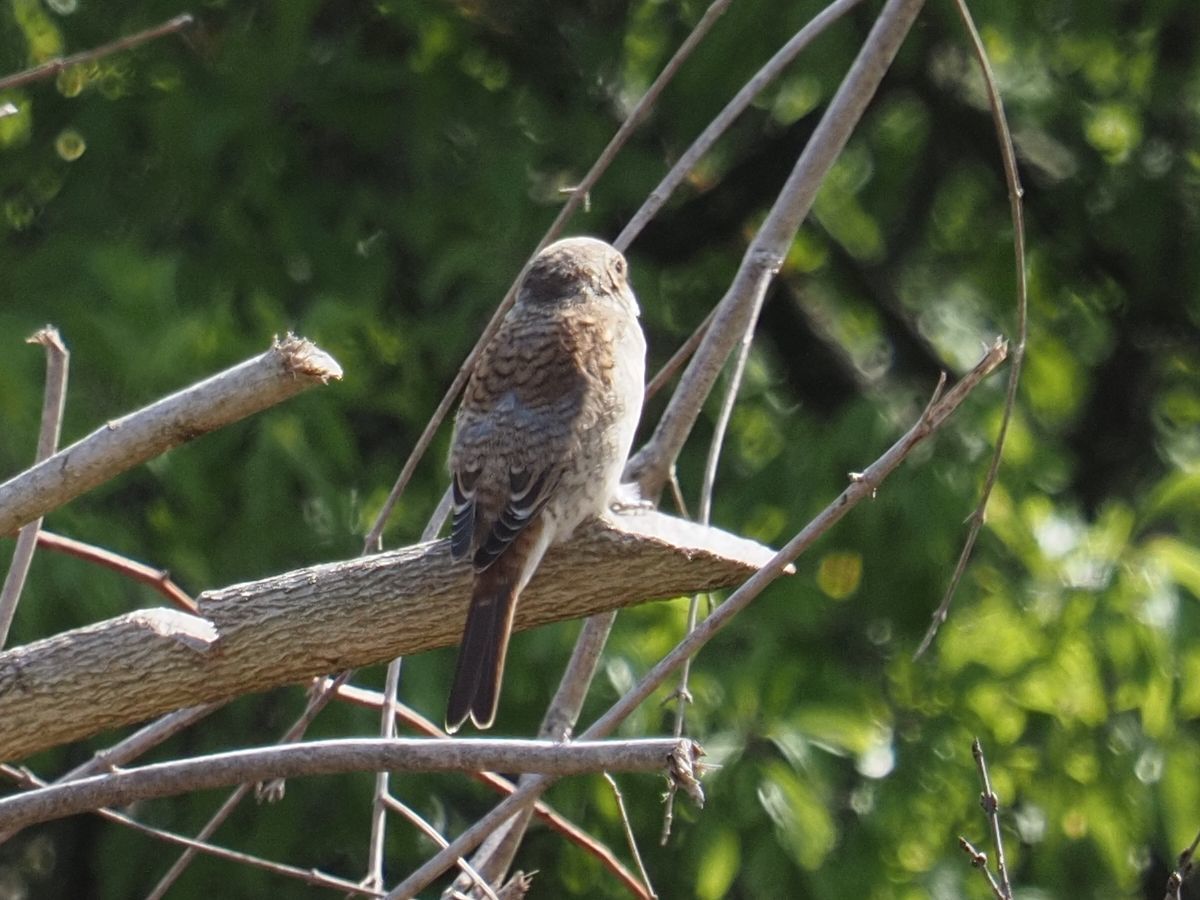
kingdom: Animalia
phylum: Chordata
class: Aves
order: Passeriformes
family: Laniidae
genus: Lanius
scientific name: Lanius collurio
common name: Red-backed shrike
